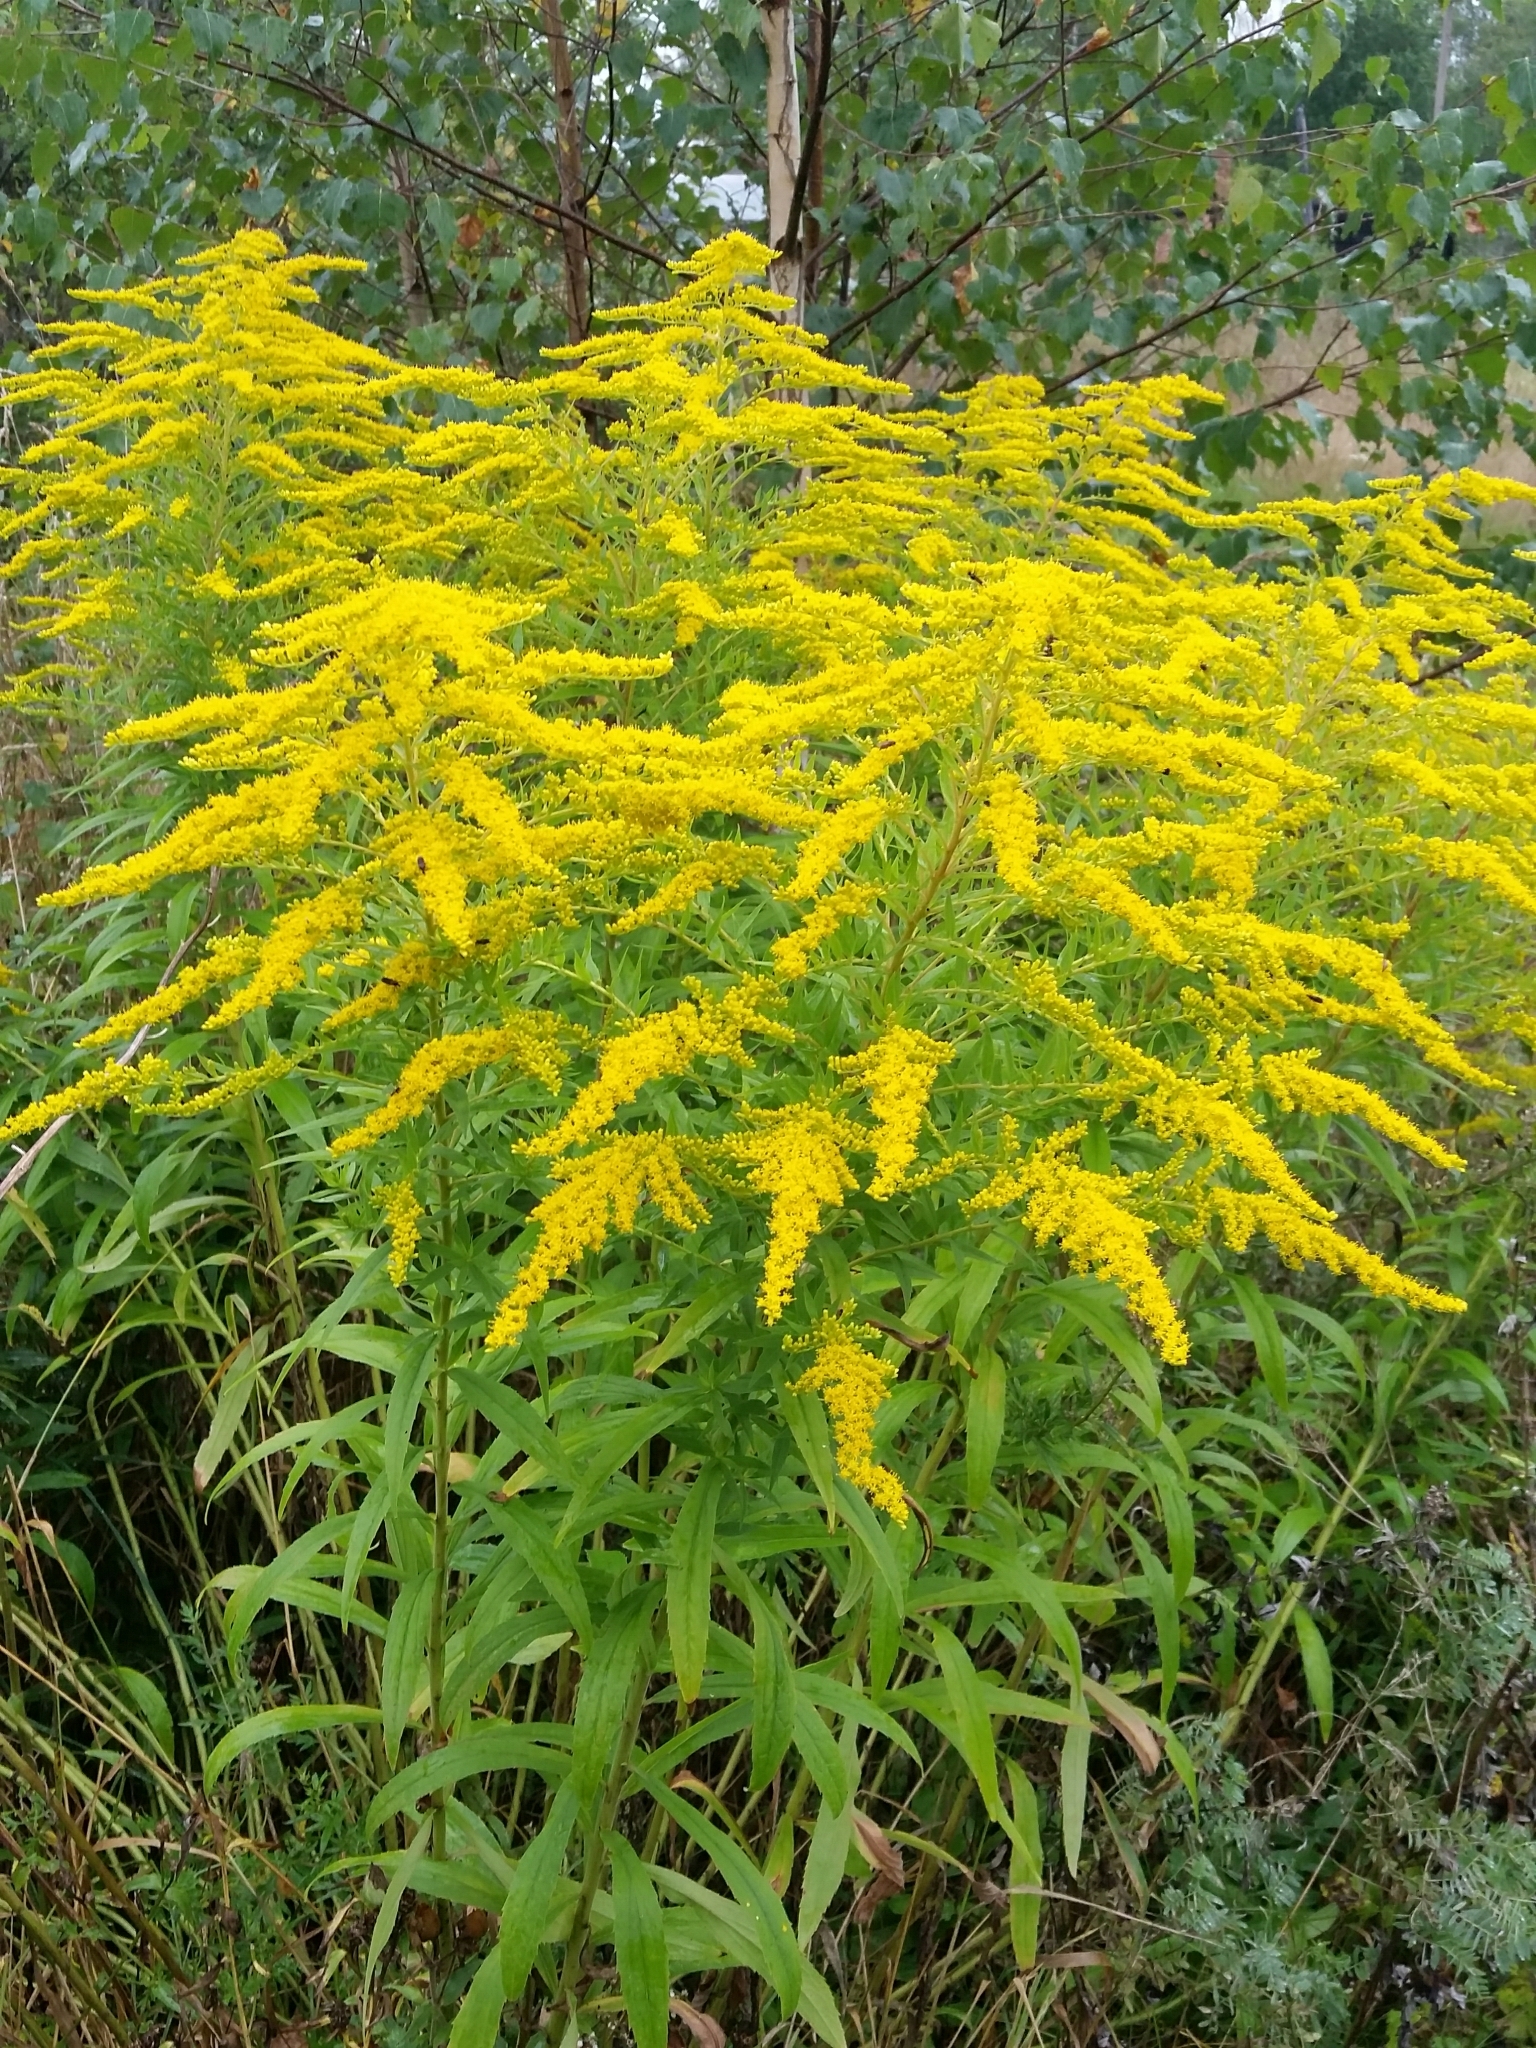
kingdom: Plantae
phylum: Tracheophyta
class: Magnoliopsida
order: Asterales
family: Asteraceae
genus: Solidago
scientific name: Solidago canadensis
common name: Canada goldenrod
